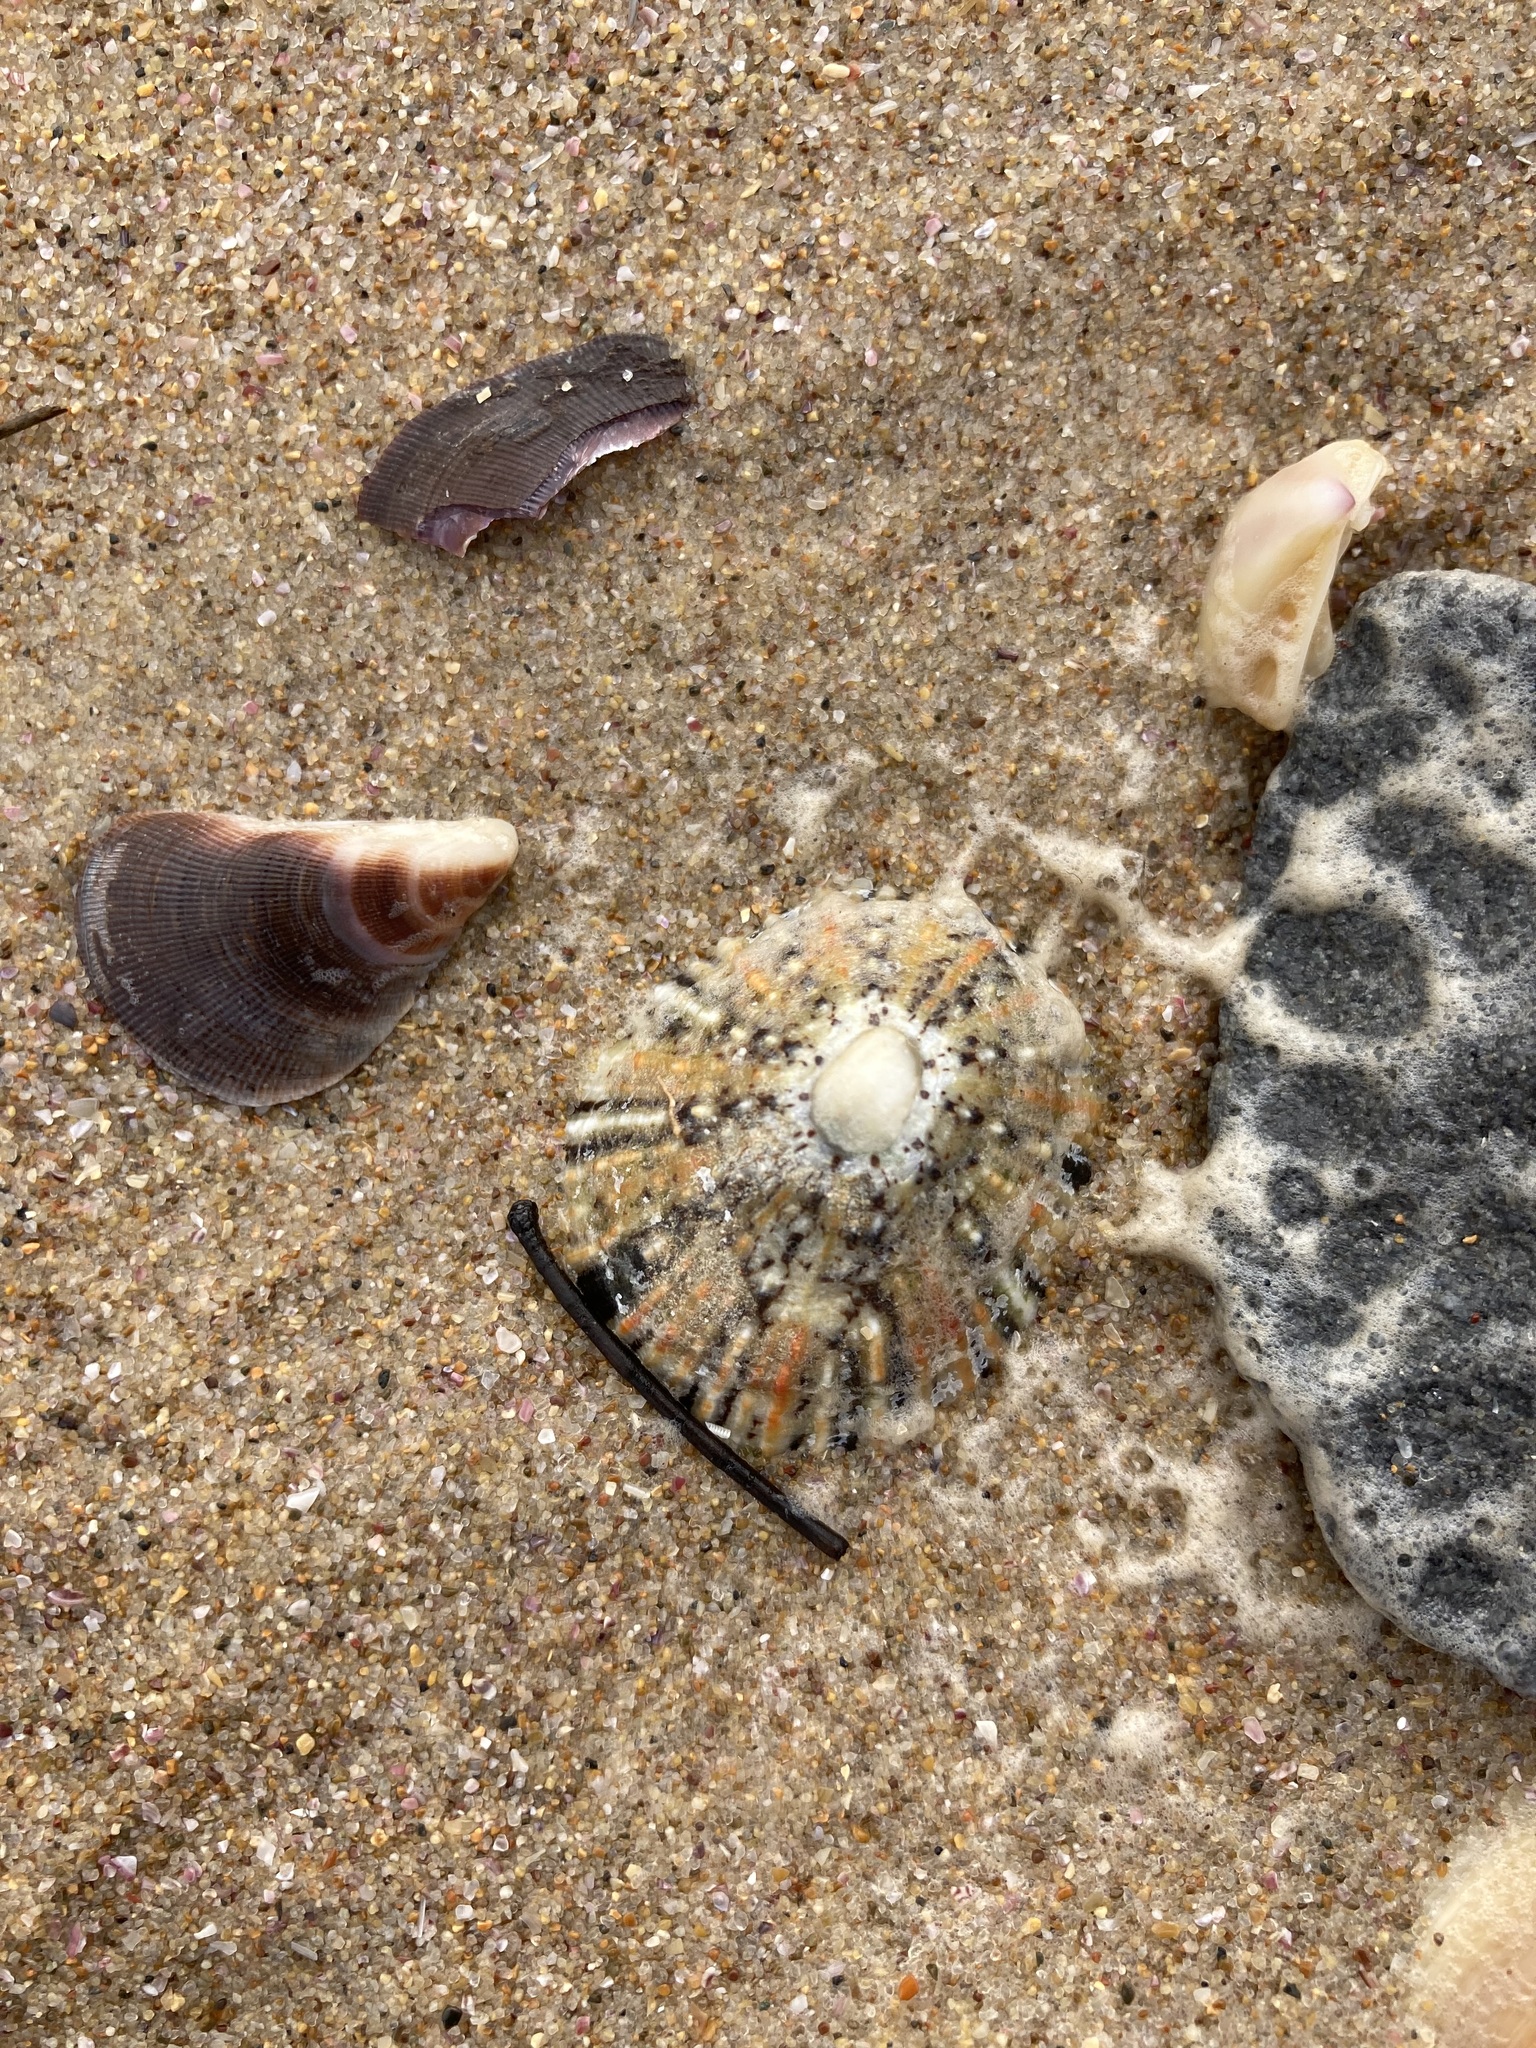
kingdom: Animalia
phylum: Mollusca
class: Gastropoda
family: Nacellidae
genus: Cellana
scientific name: Cellana tramoserica
